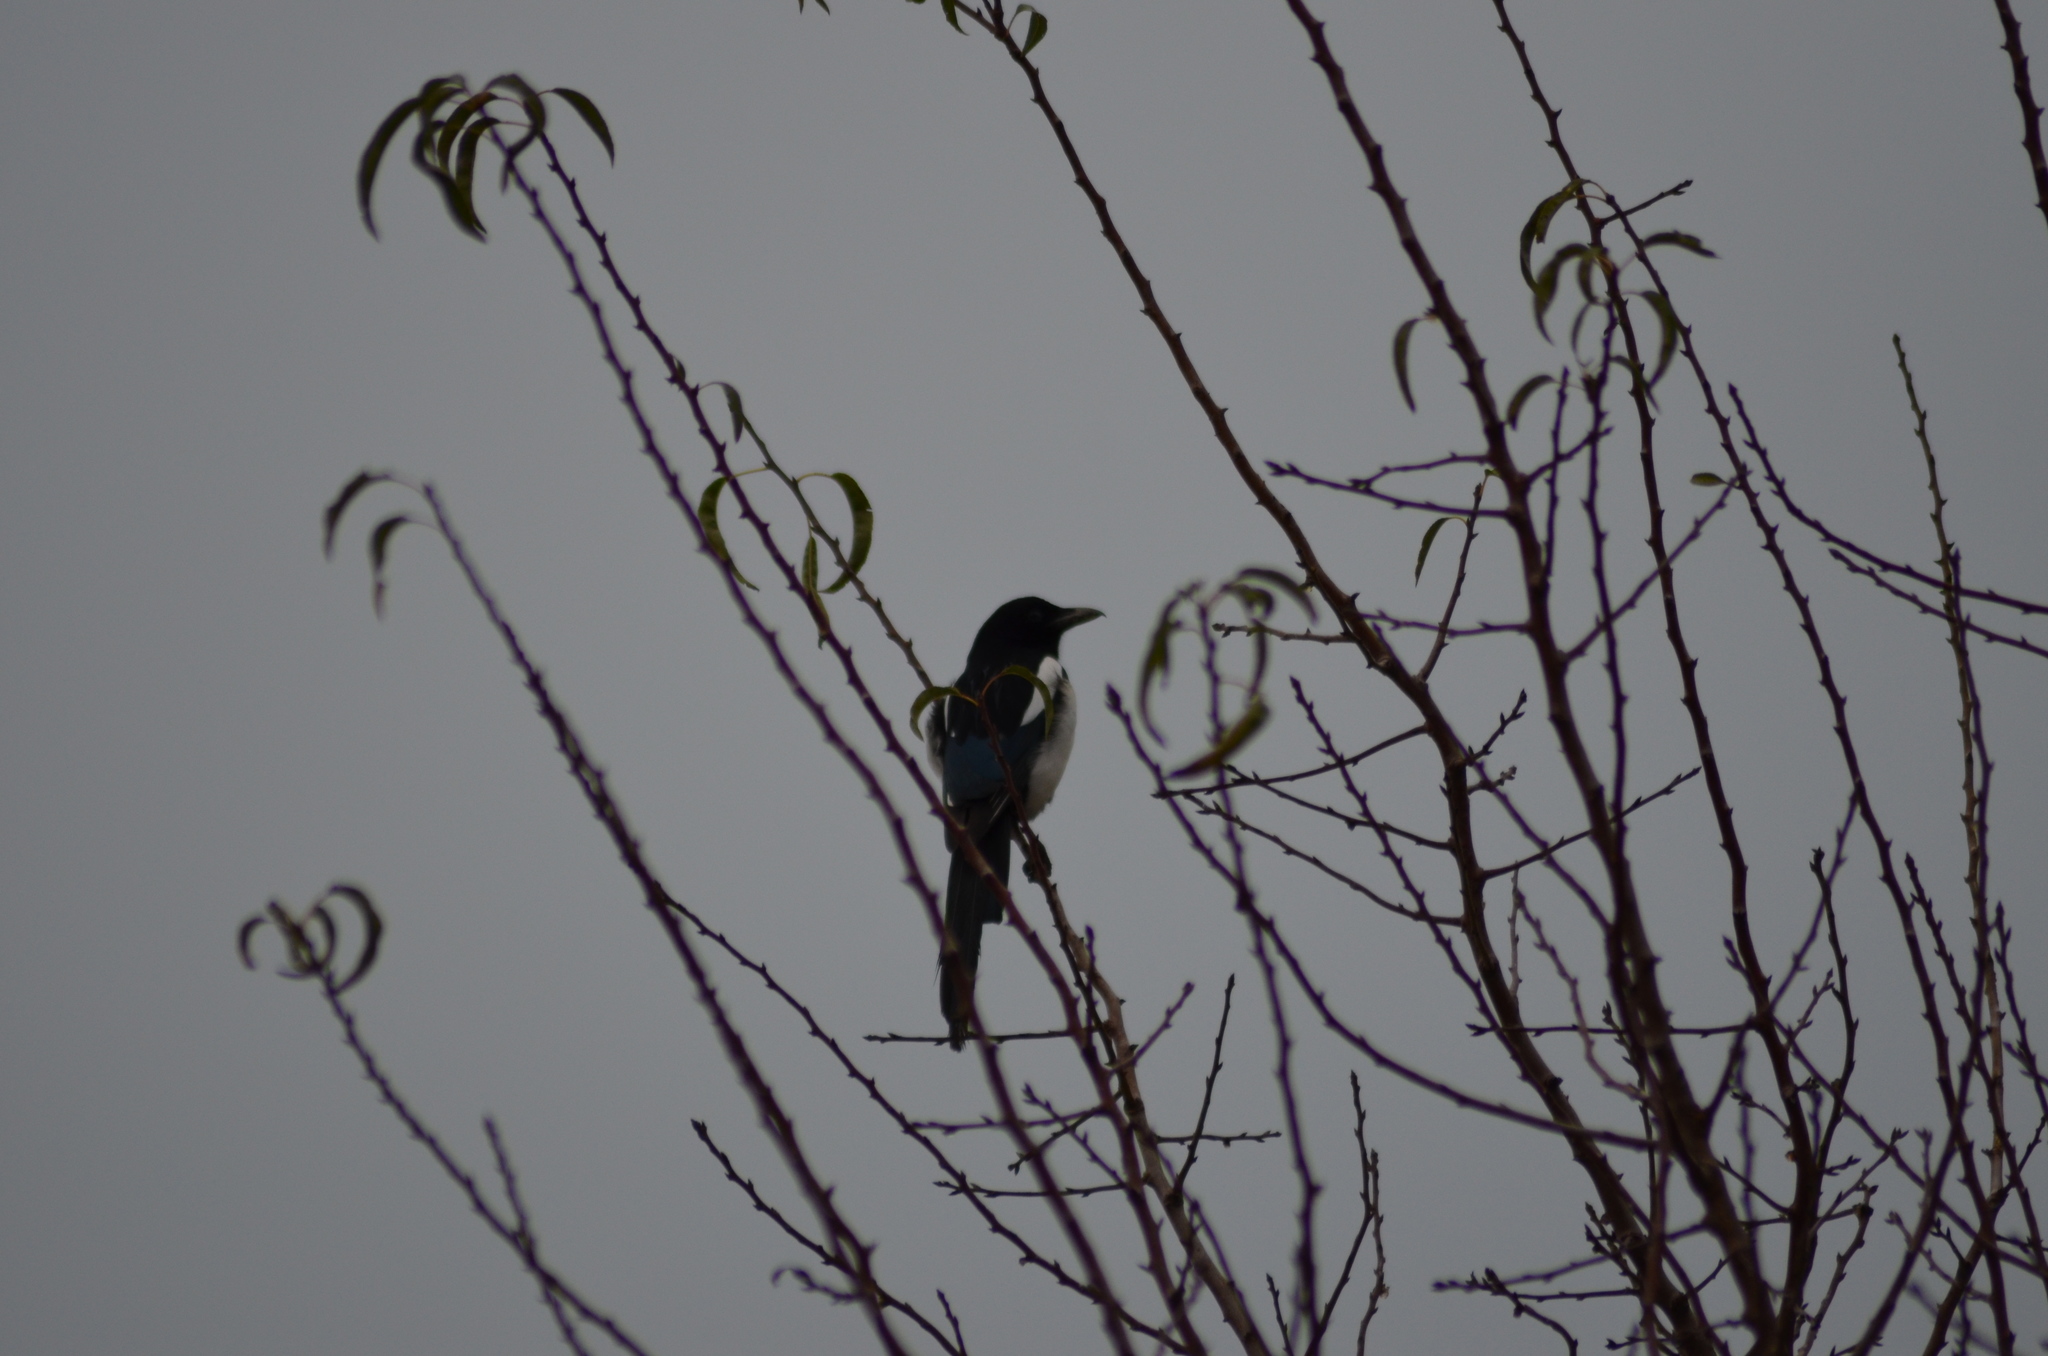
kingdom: Animalia
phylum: Chordata
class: Aves
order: Passeriformes
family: Corvidae
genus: Pica
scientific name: Pica pica
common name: Eurasian magpie
